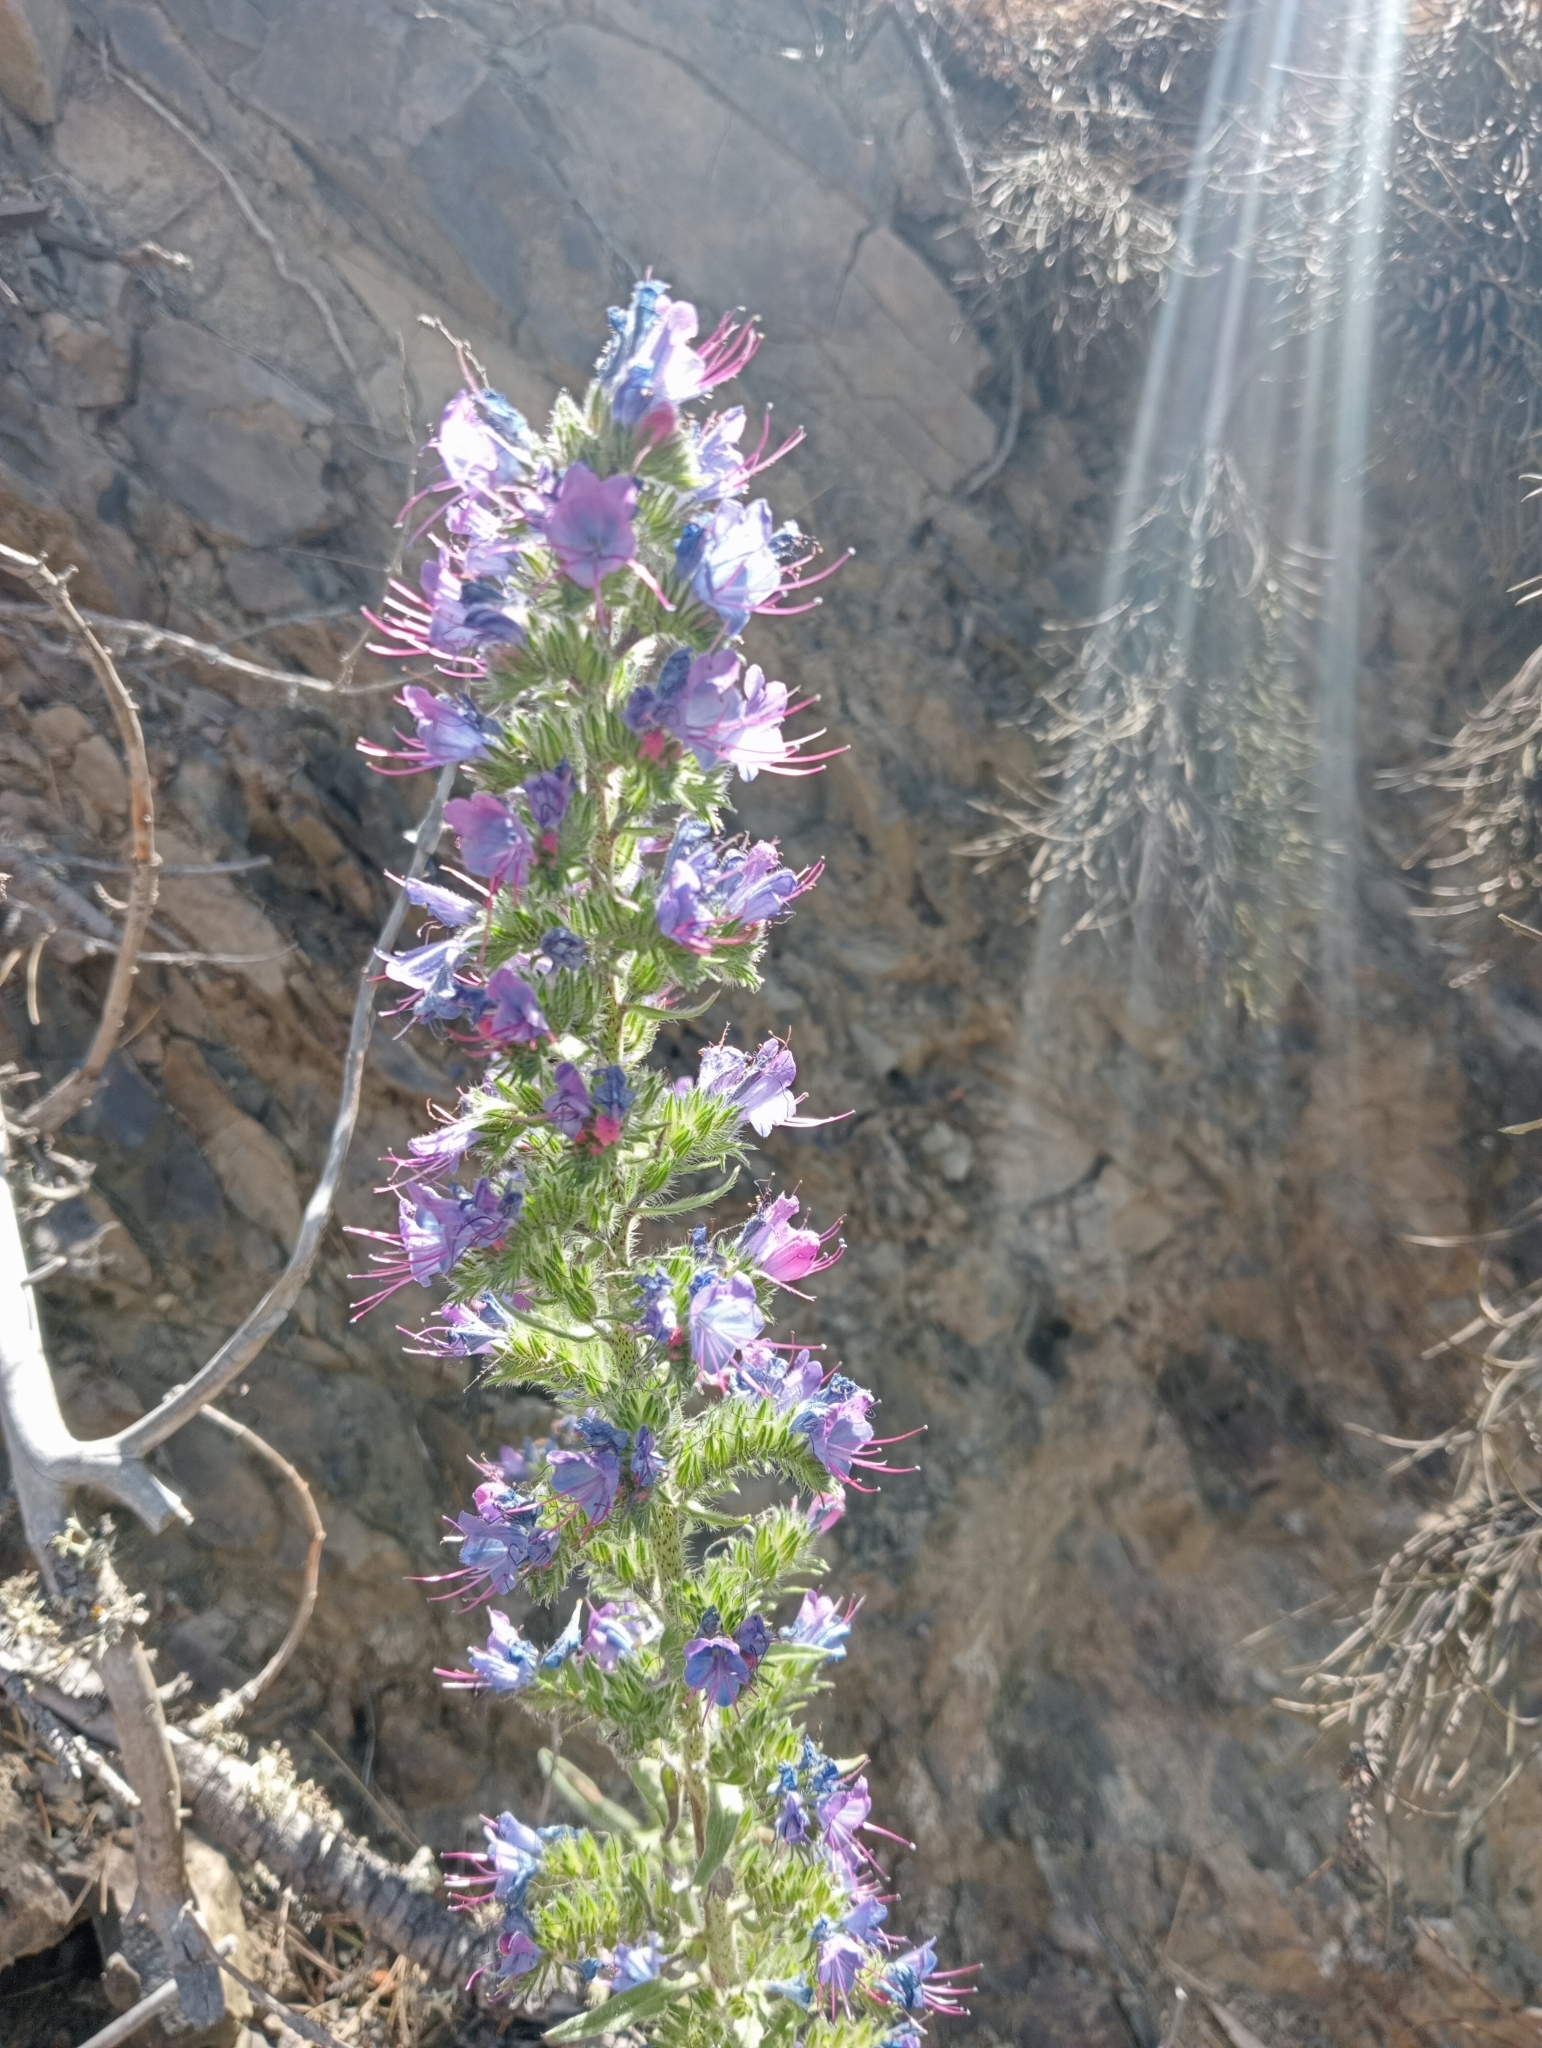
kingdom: Plantae
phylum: Tracheophyta
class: Magnoliopsida
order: Boraginales
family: Boraginaceae
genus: Echium
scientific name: Echium vulgare
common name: Common viper's bugloss
